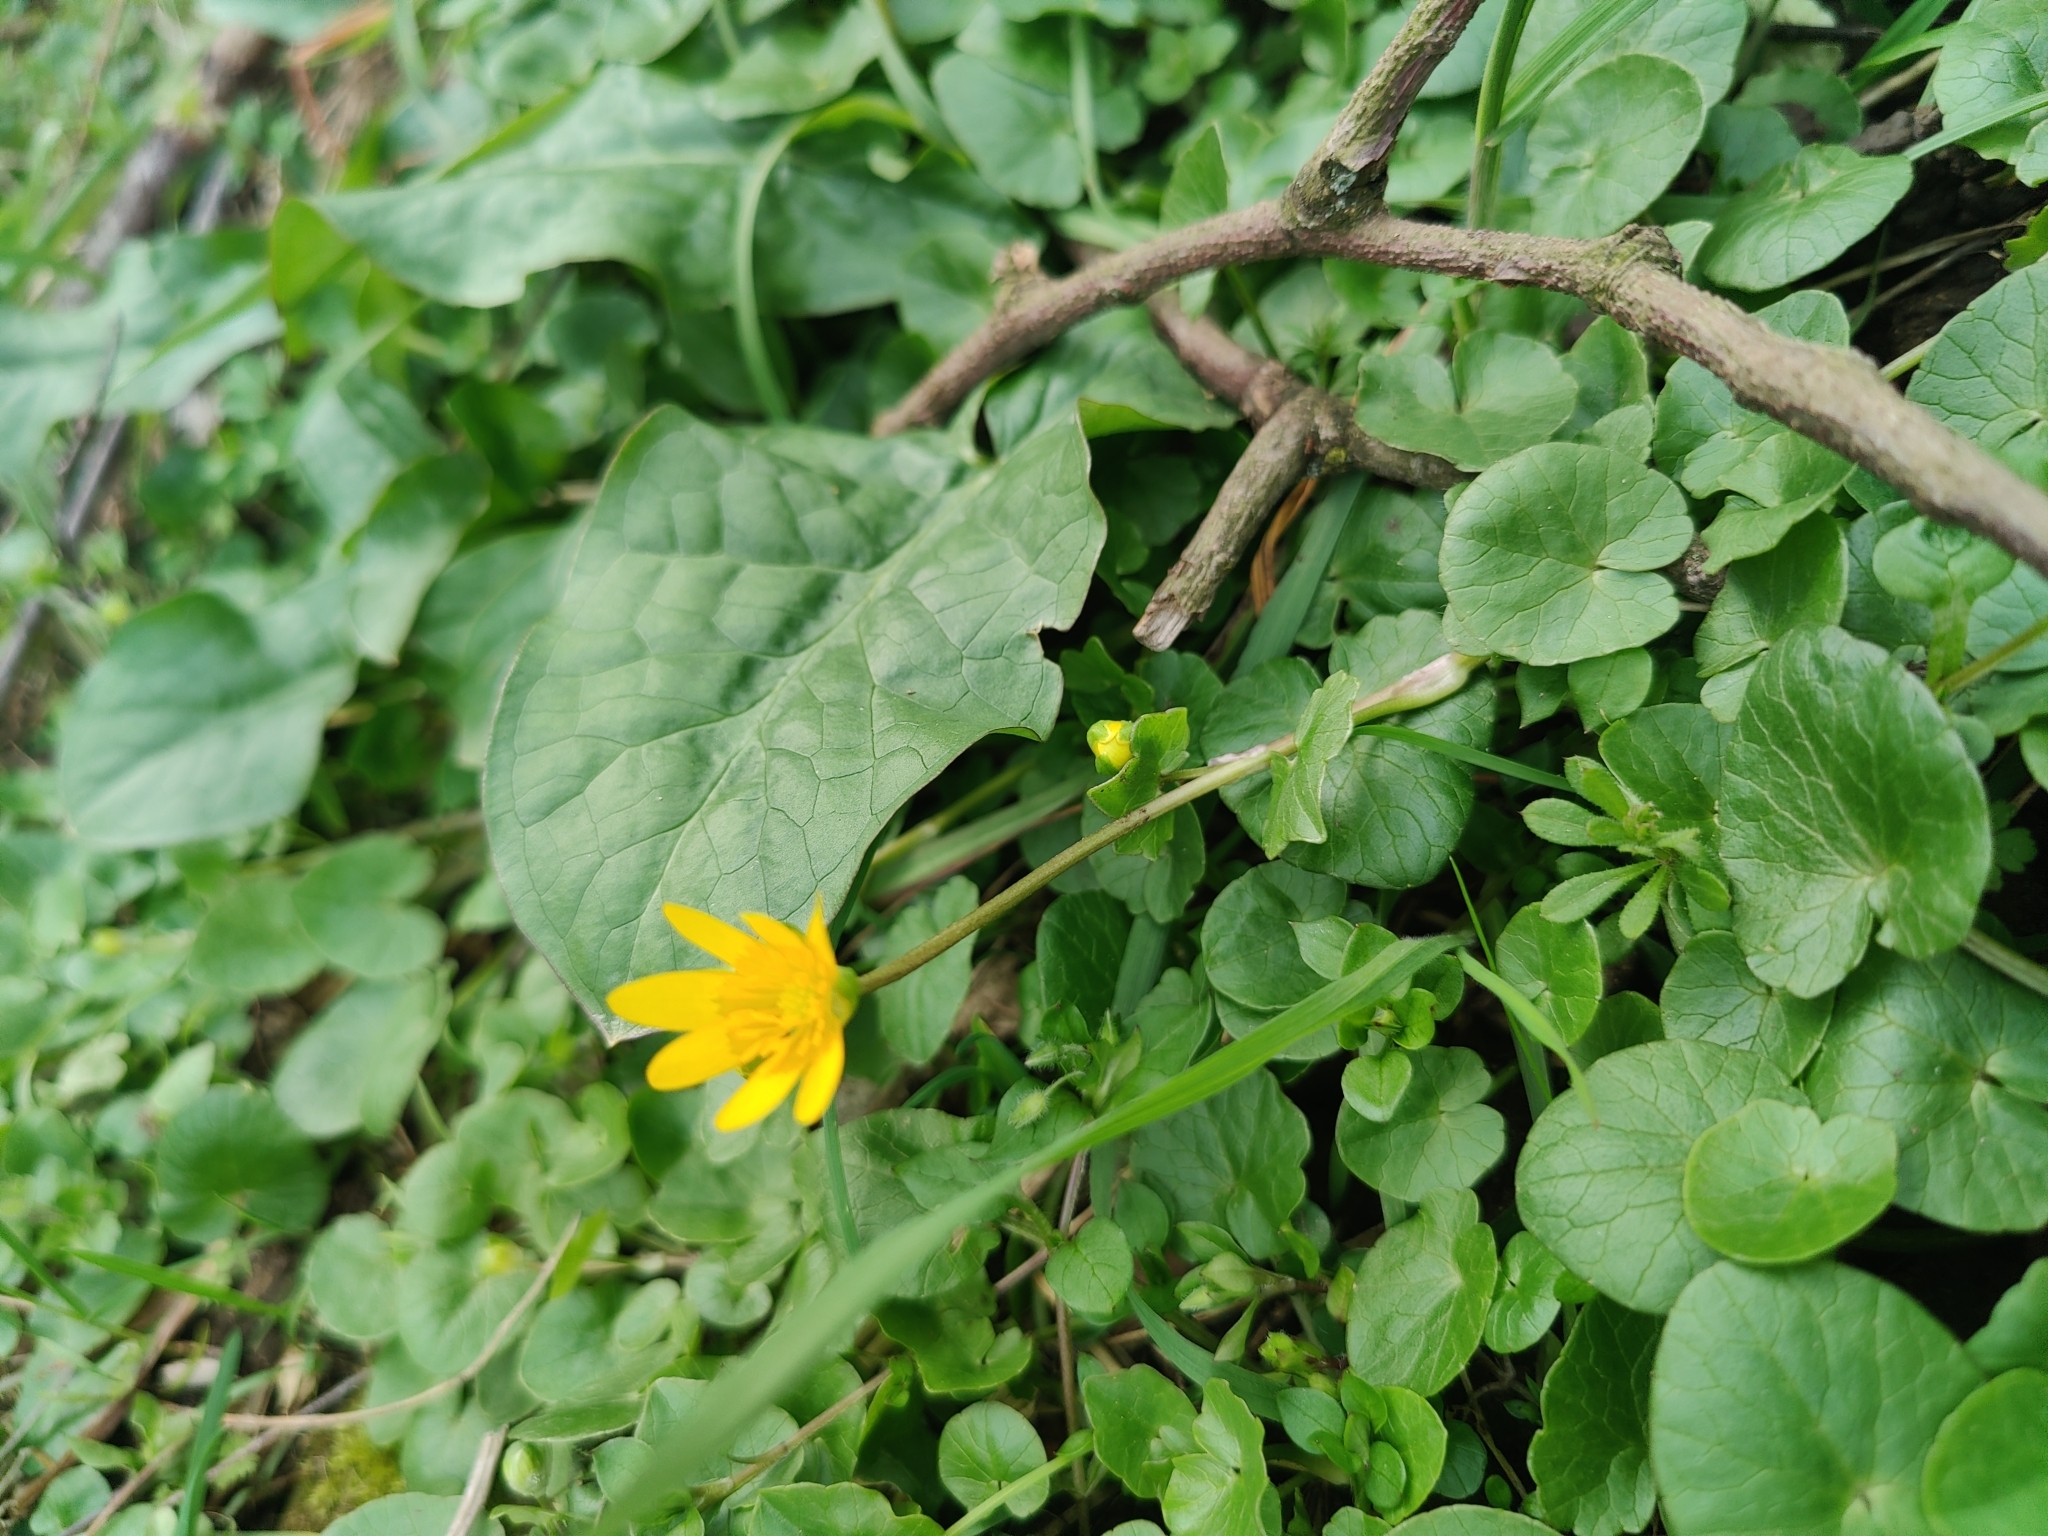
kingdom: Plantae
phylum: Tracheophyta
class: Magnoliopsida
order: Ranunculales
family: Ranunculaceae
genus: Ficaria
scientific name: Ficaria verna
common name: Lesser celandine
